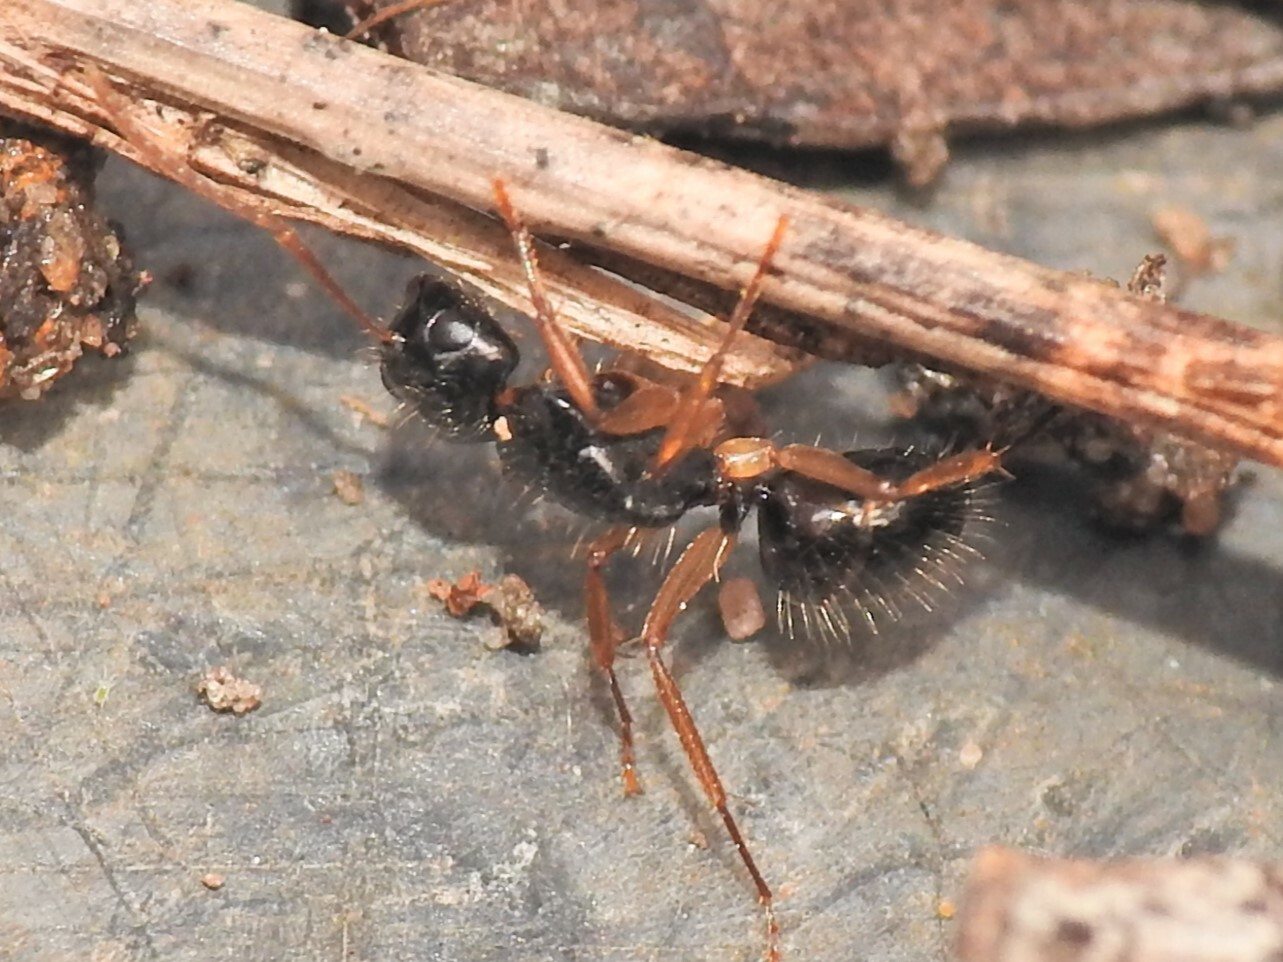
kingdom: Animalia
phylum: Arthropoda
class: Insecta
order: Hymenoptera
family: Formicidae
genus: Camponotus
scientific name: Camponotus lownei
